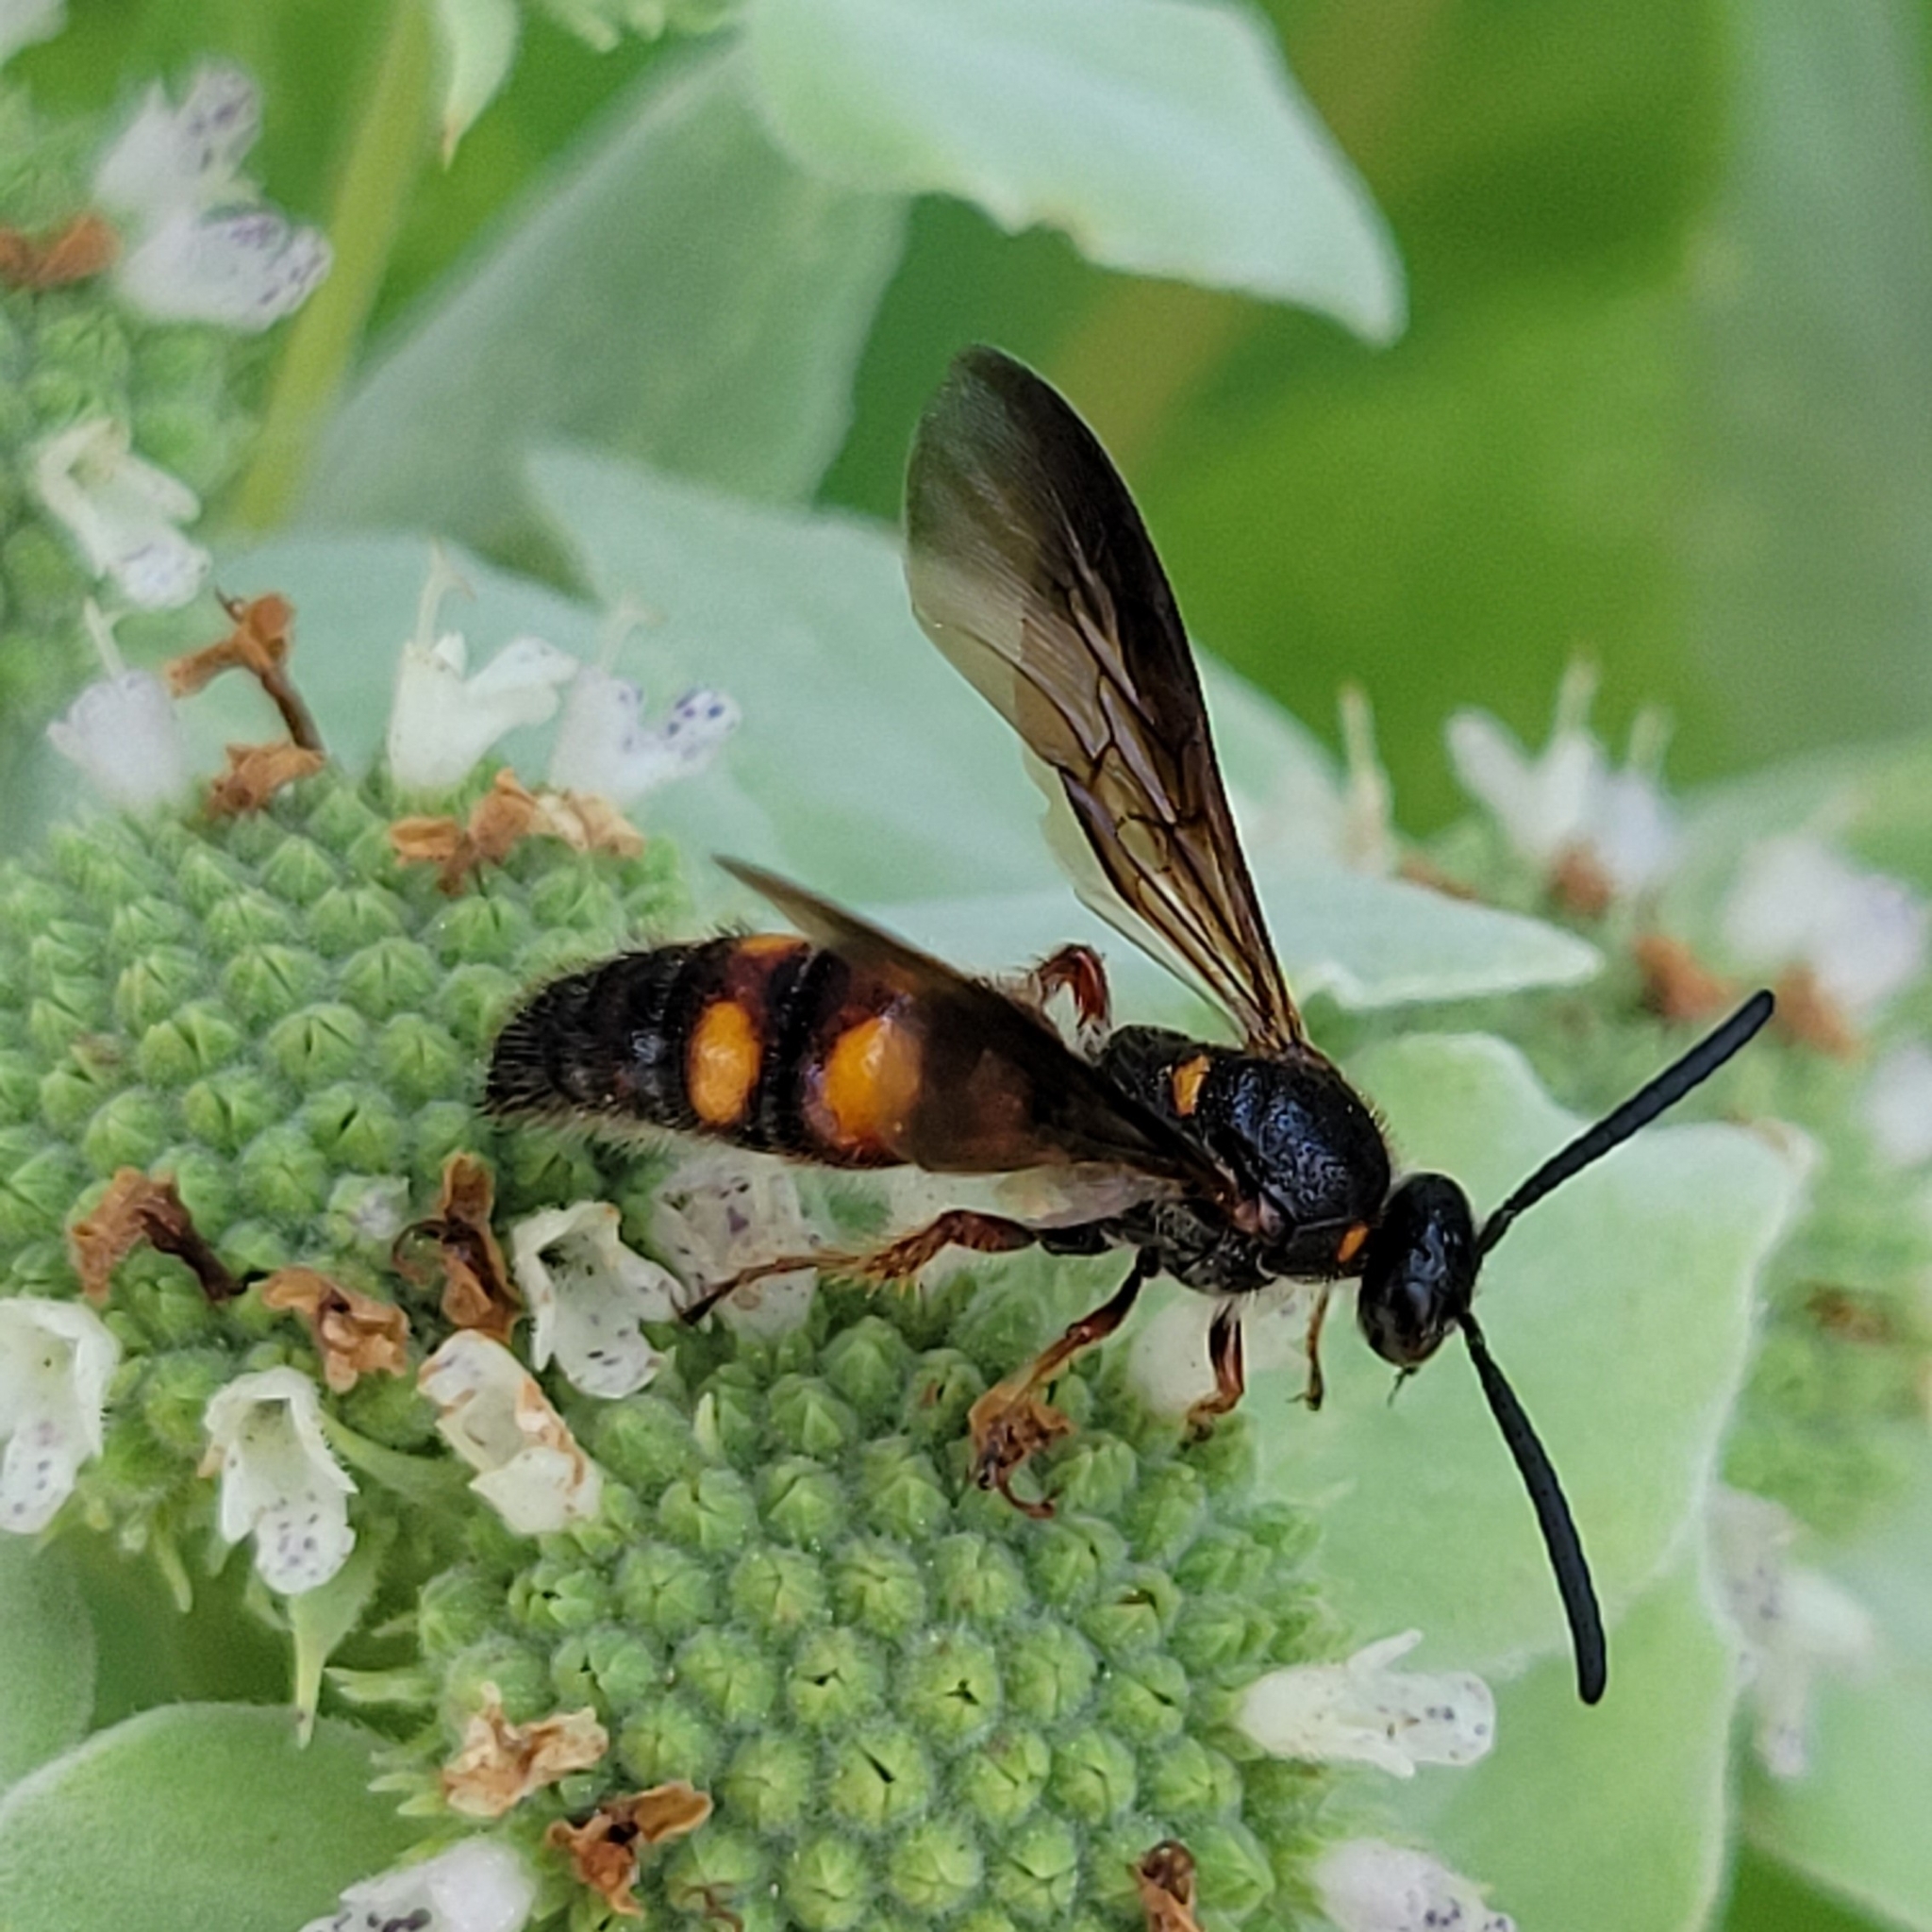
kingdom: Animalia
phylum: Arthropoda
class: Insecta
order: Hymenoptera
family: Scoliidae
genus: Scolia
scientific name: Scolia nobilitata
